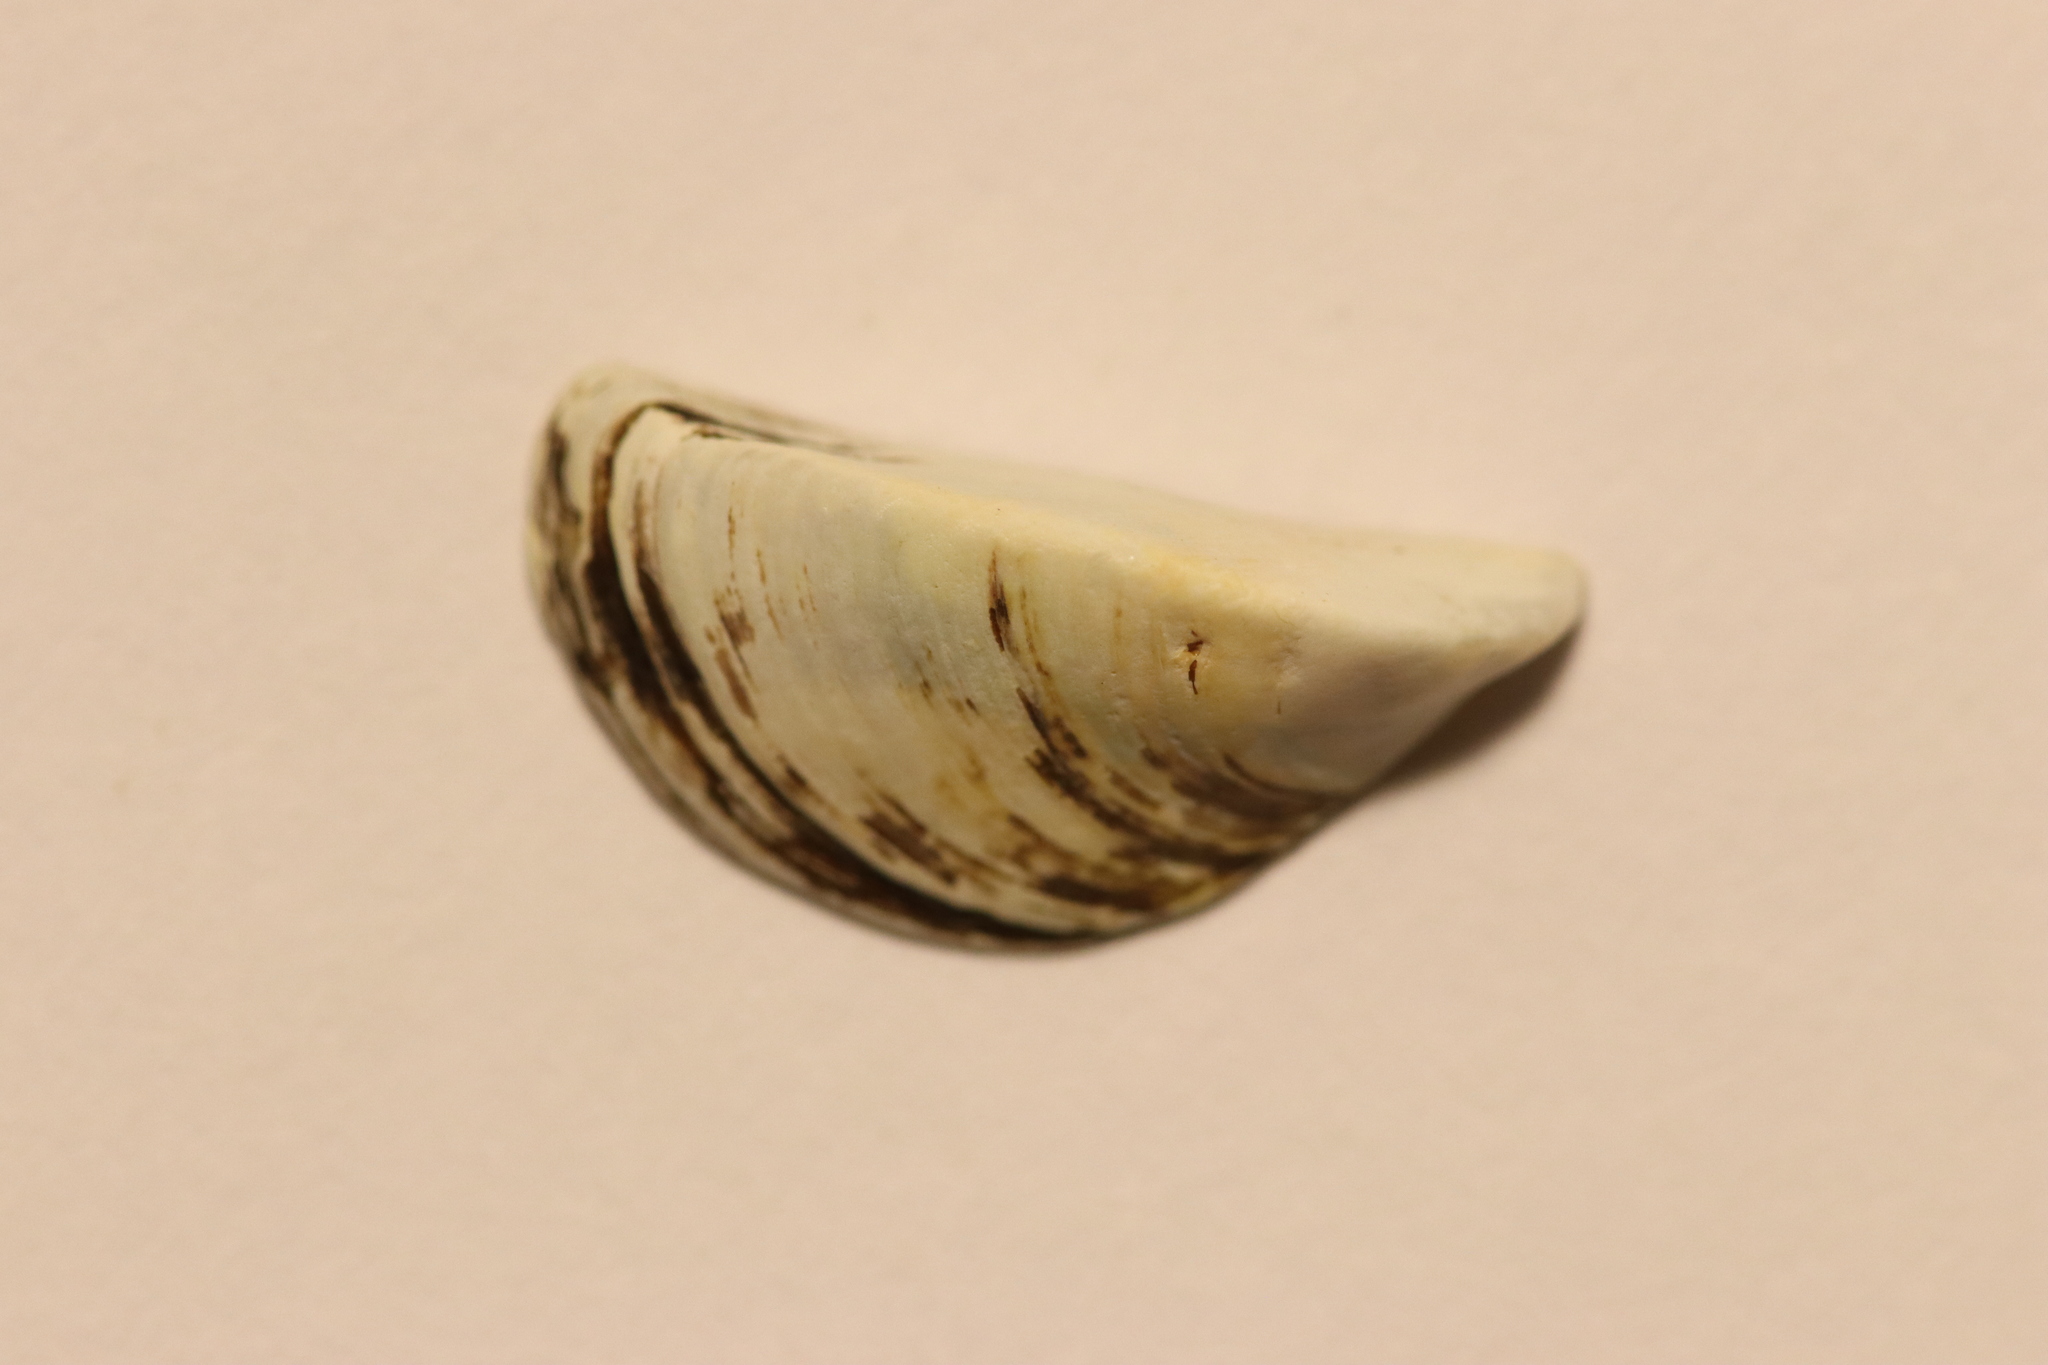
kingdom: Animalia
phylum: Mollusca
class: Bivalvia
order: Myida
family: Dreissenidae
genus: Dreissena
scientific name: Dreissena polymorpha
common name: Zebra mussel
